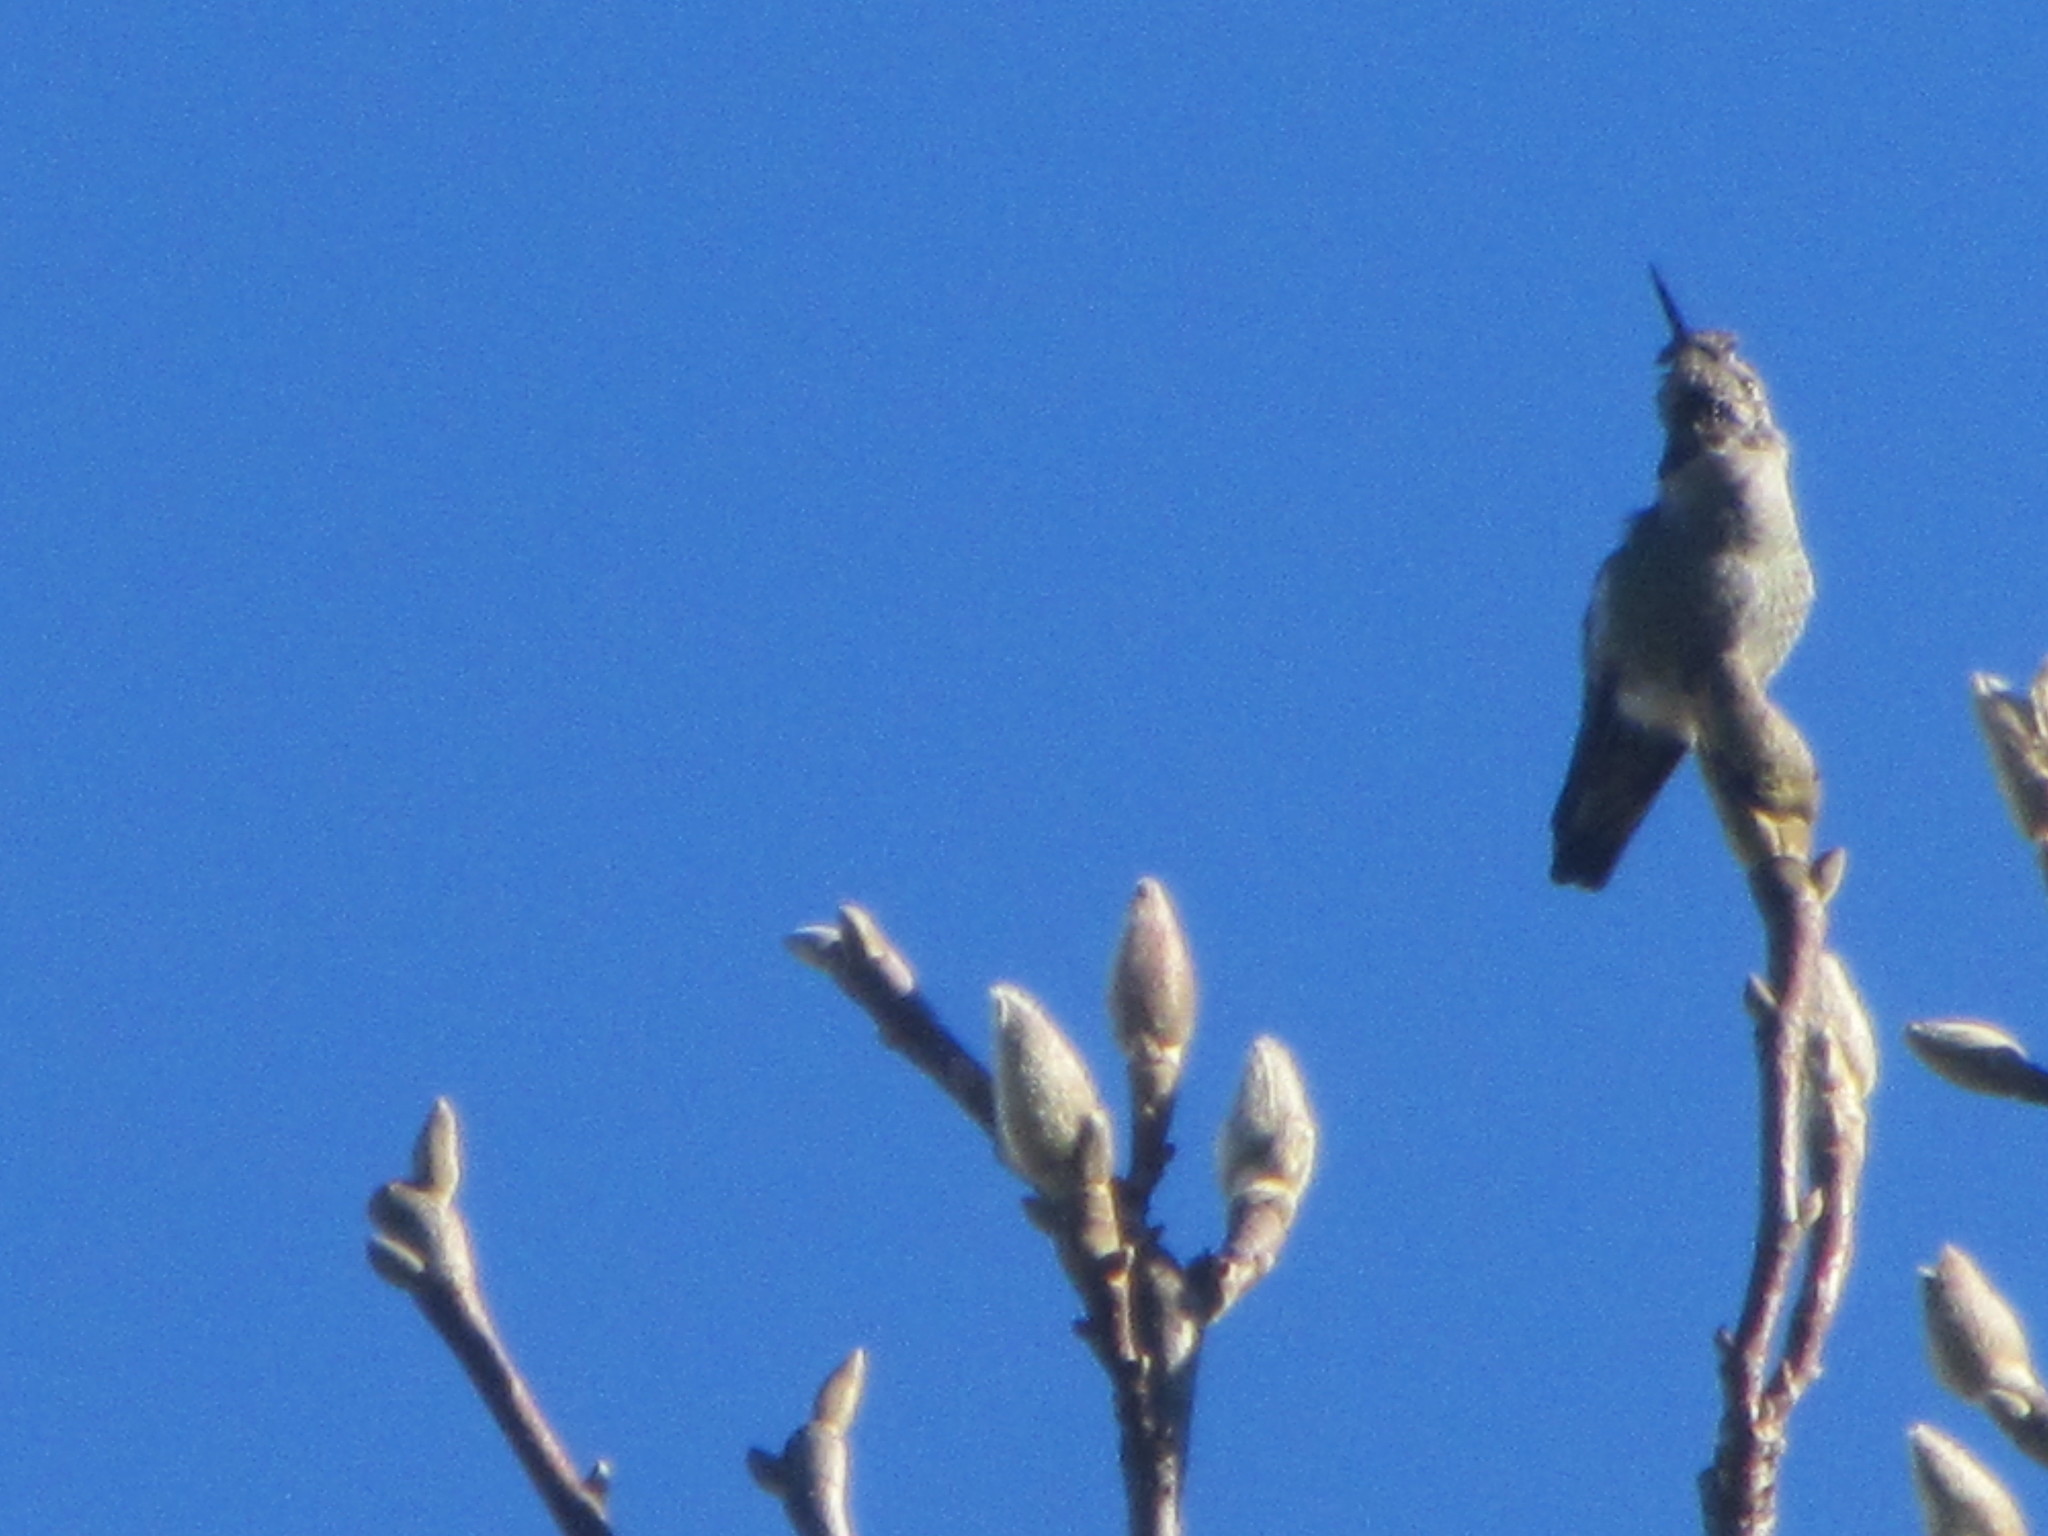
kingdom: Animalia
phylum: Chordata
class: Aves
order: Apodiformes
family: Trochilidae
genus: Calypte
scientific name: Calypte anna
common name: Anna's hummingbird
